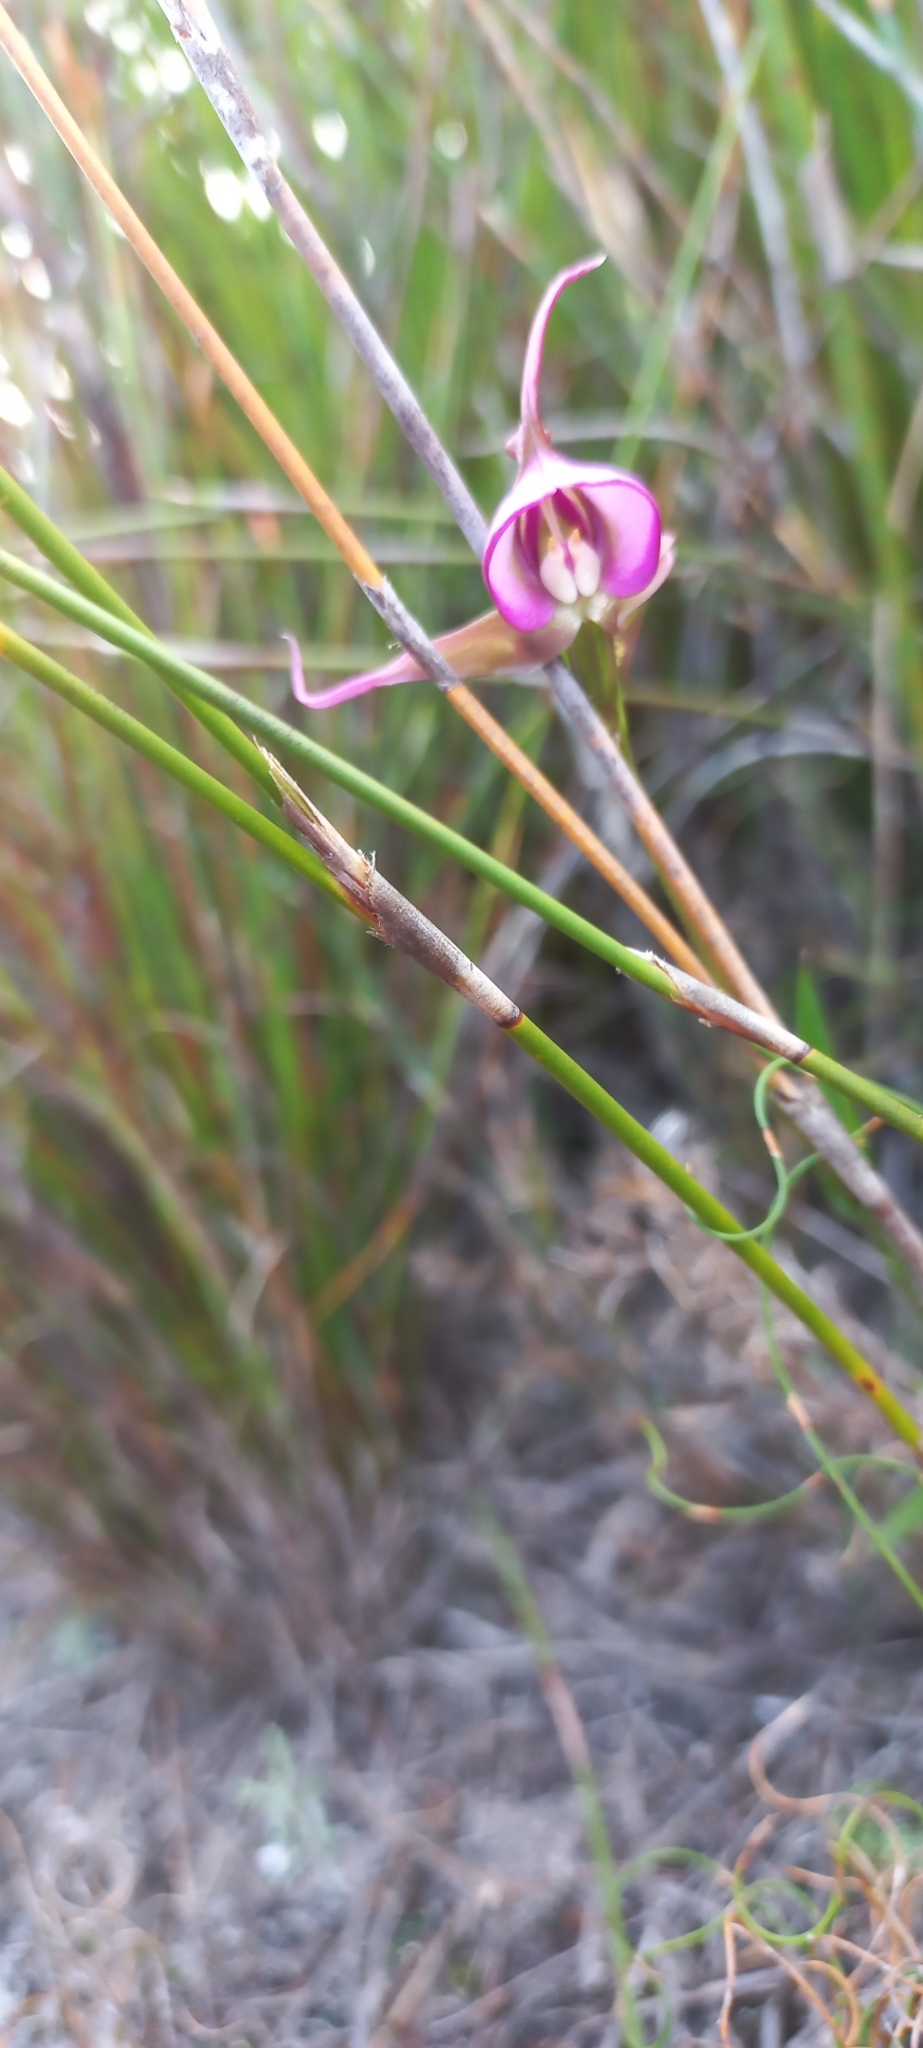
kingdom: Plantae
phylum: Tracheophyta
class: Liliopsida
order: Asparagales
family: Orchidaceae
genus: Disperis
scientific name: Disperis capensis
